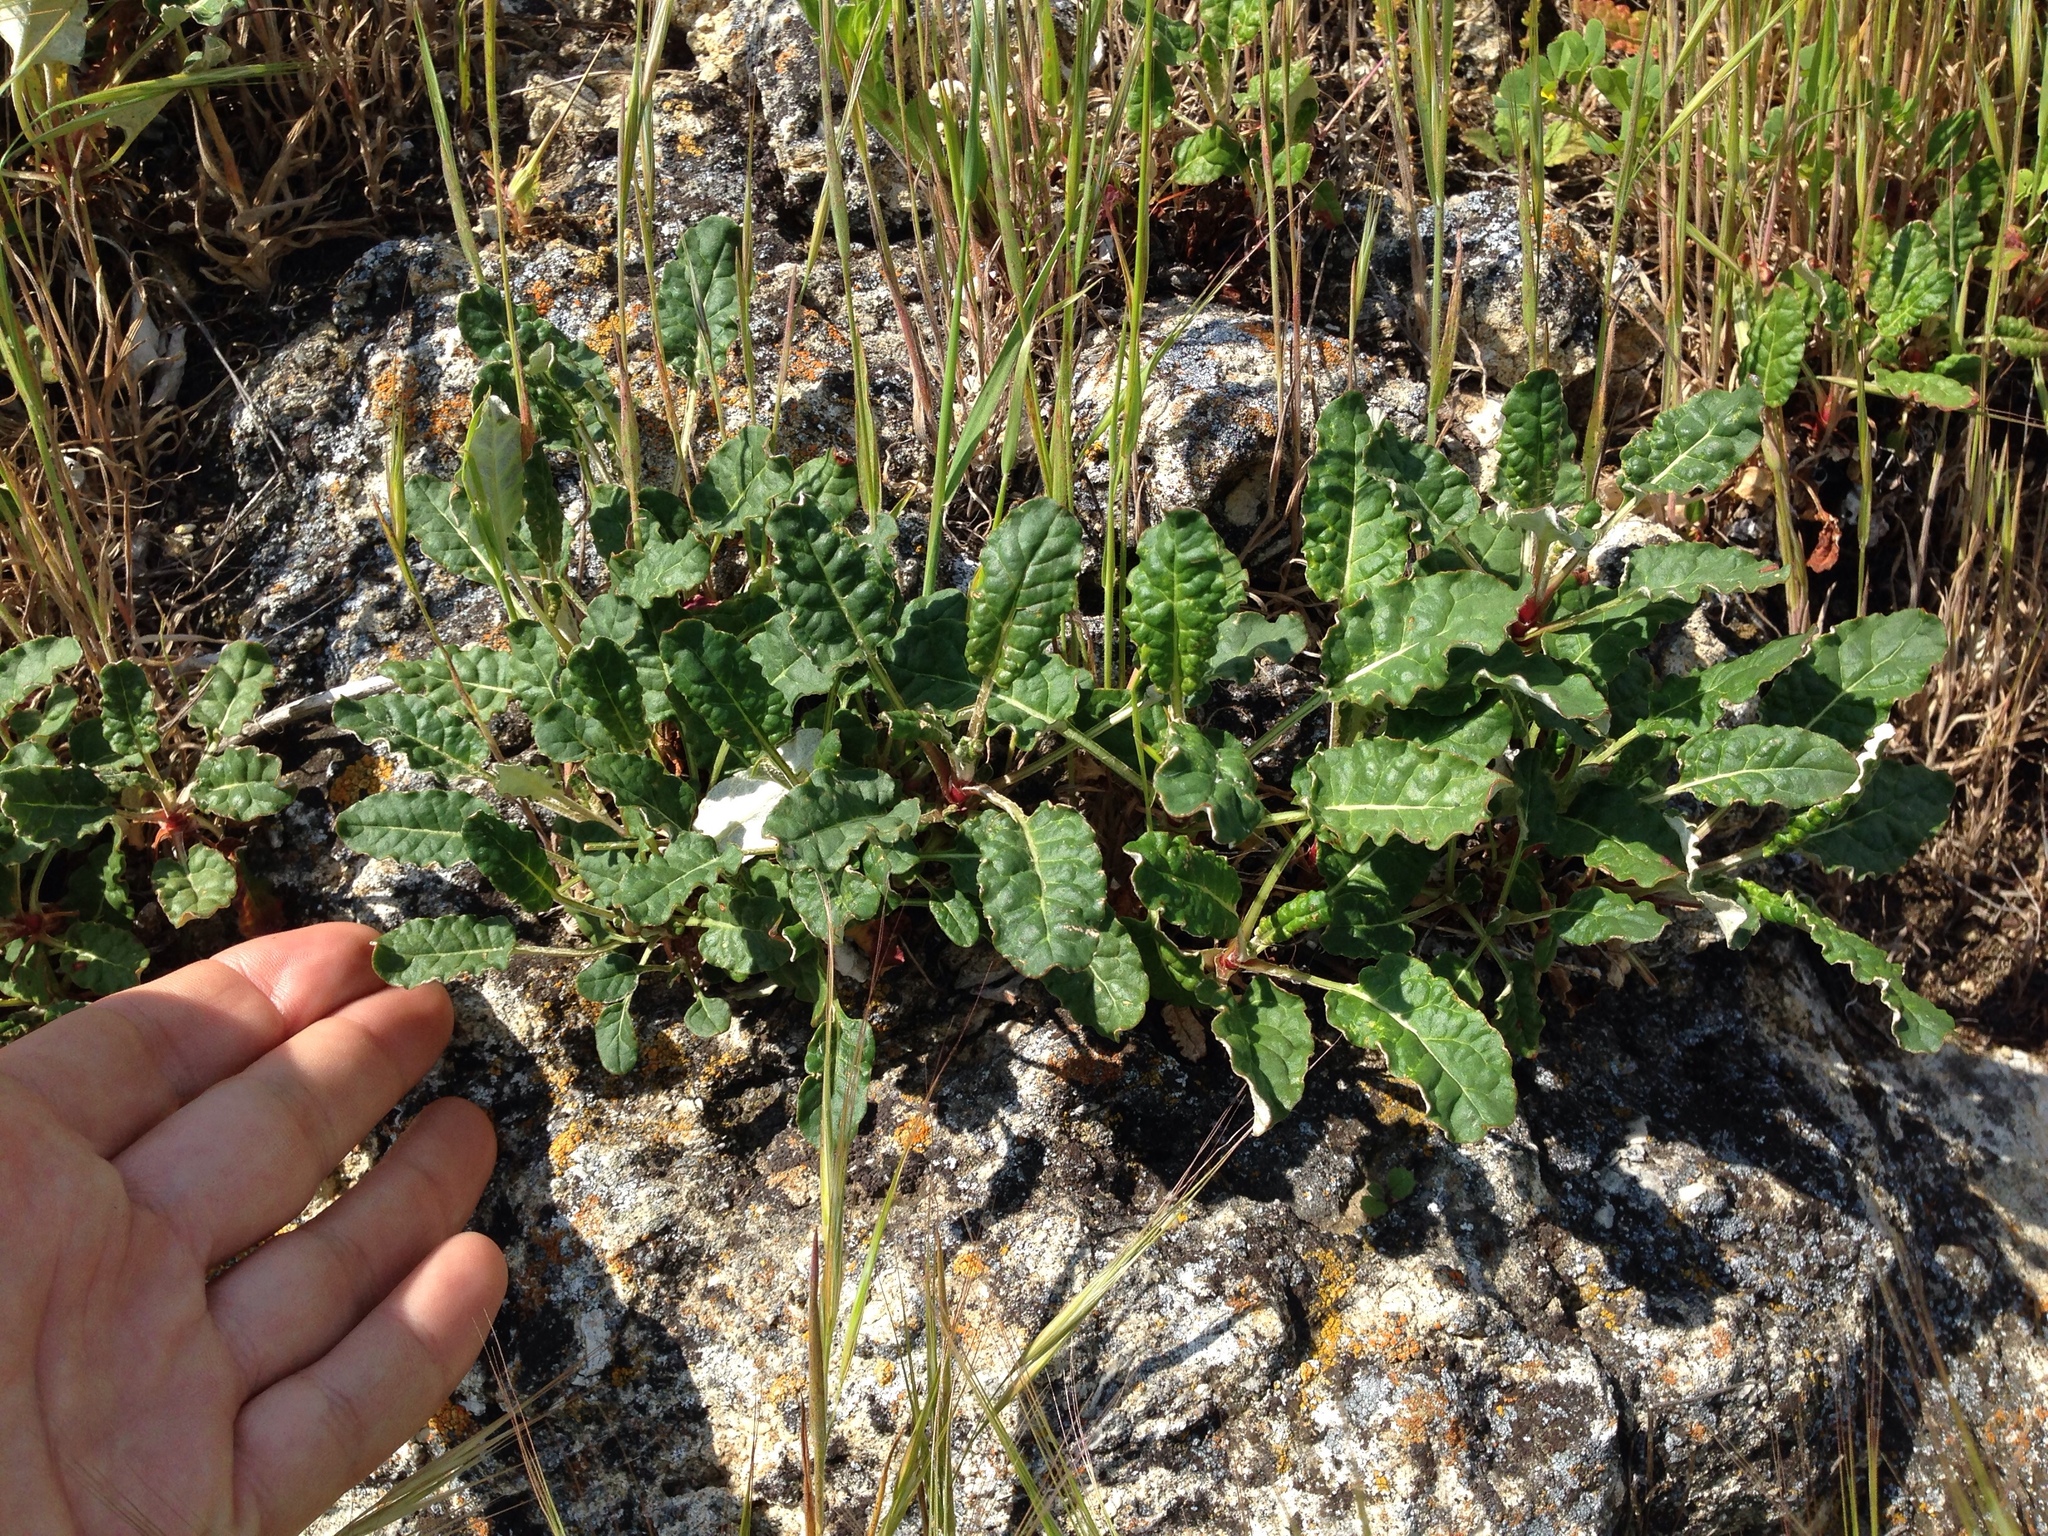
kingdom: Plantae
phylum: Tracheophyta
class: Magnoliopsida
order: Caryophyllales
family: Polygonaceae
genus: Eriogonum
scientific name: Eriogonum nudum
